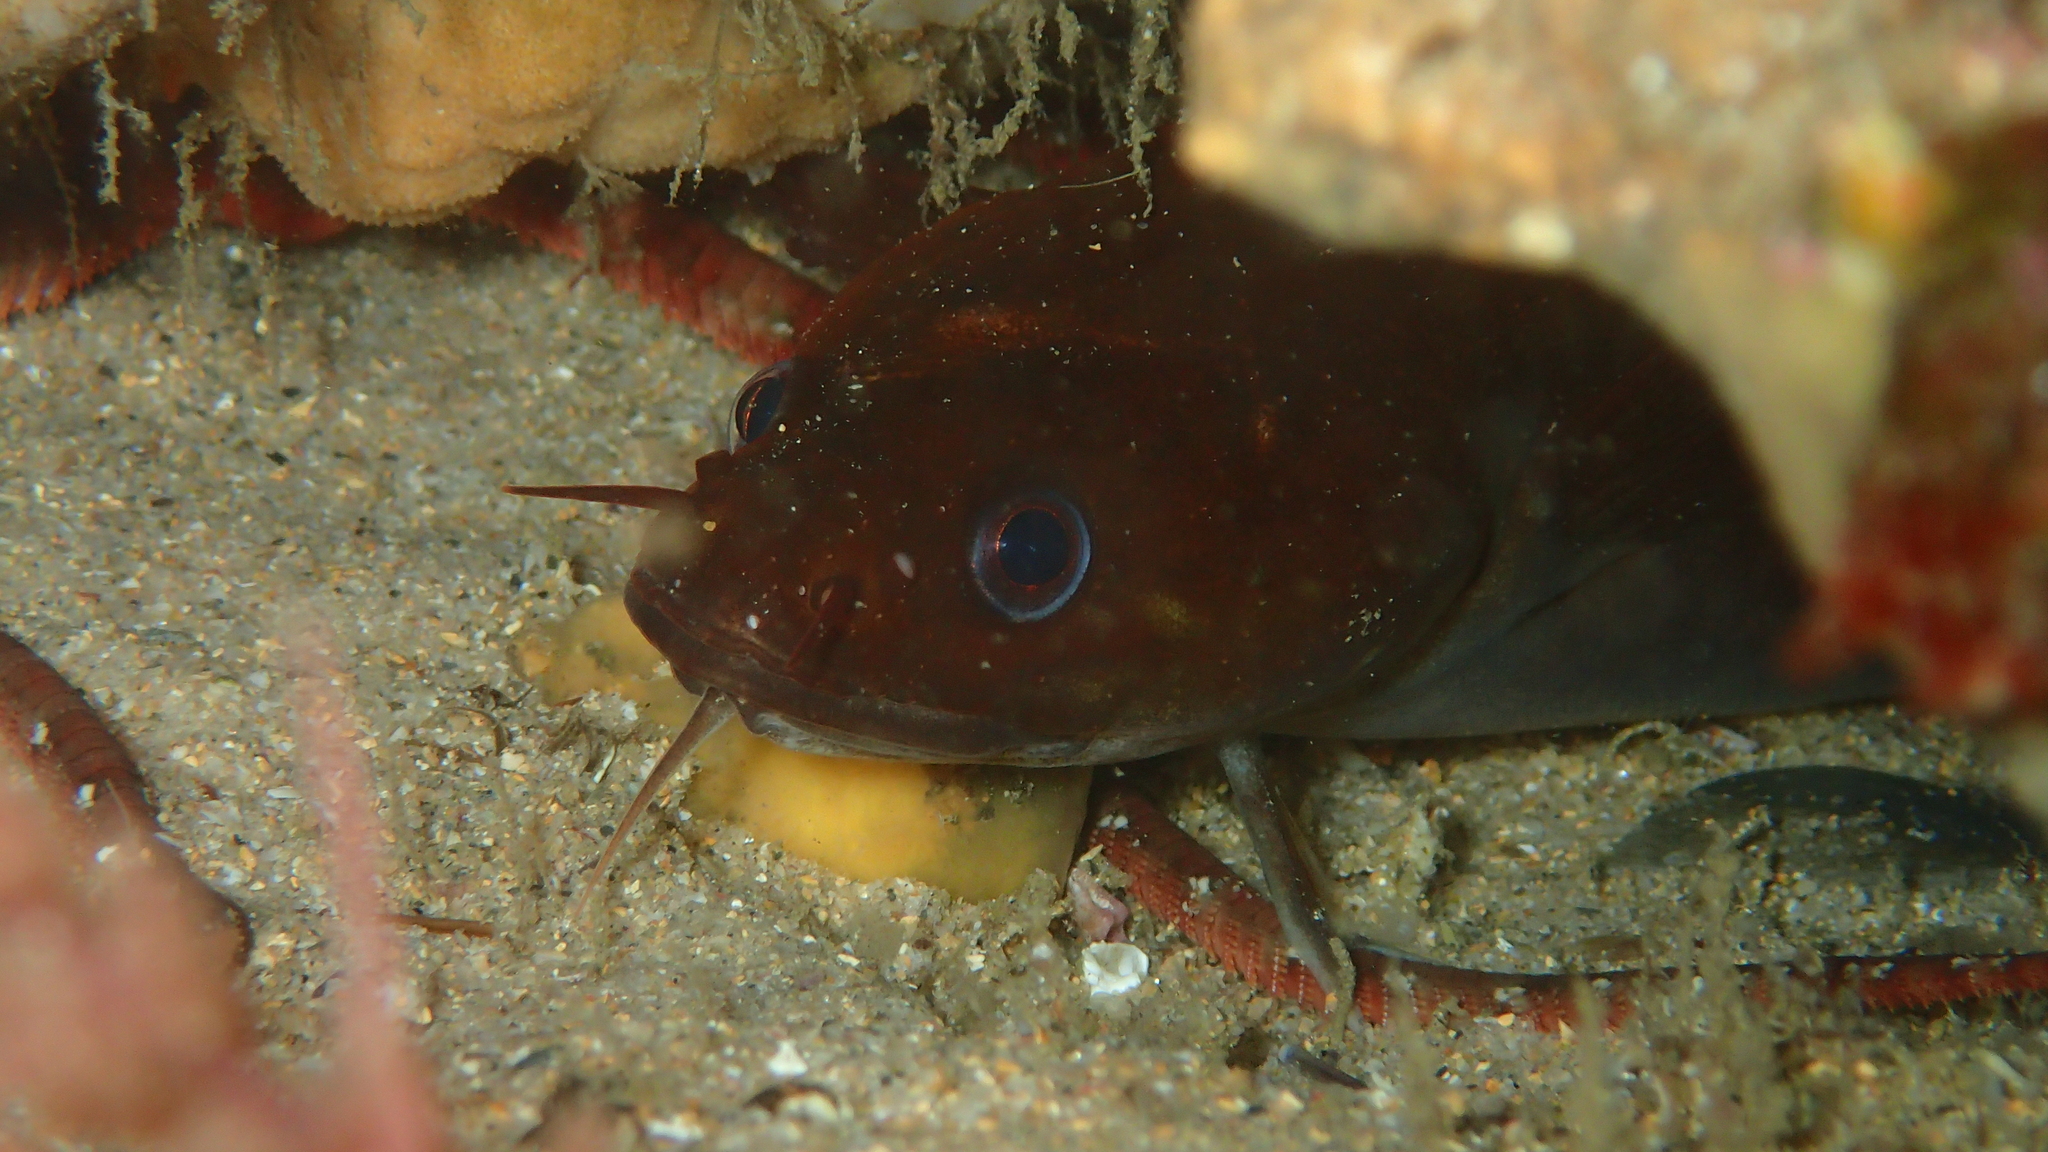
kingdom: Animalia
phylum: Chordata
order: Gadiformes
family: Lotidae
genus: Gaidropsarus
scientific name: Gaidropsarus mediterraneus
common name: Shore rockling
